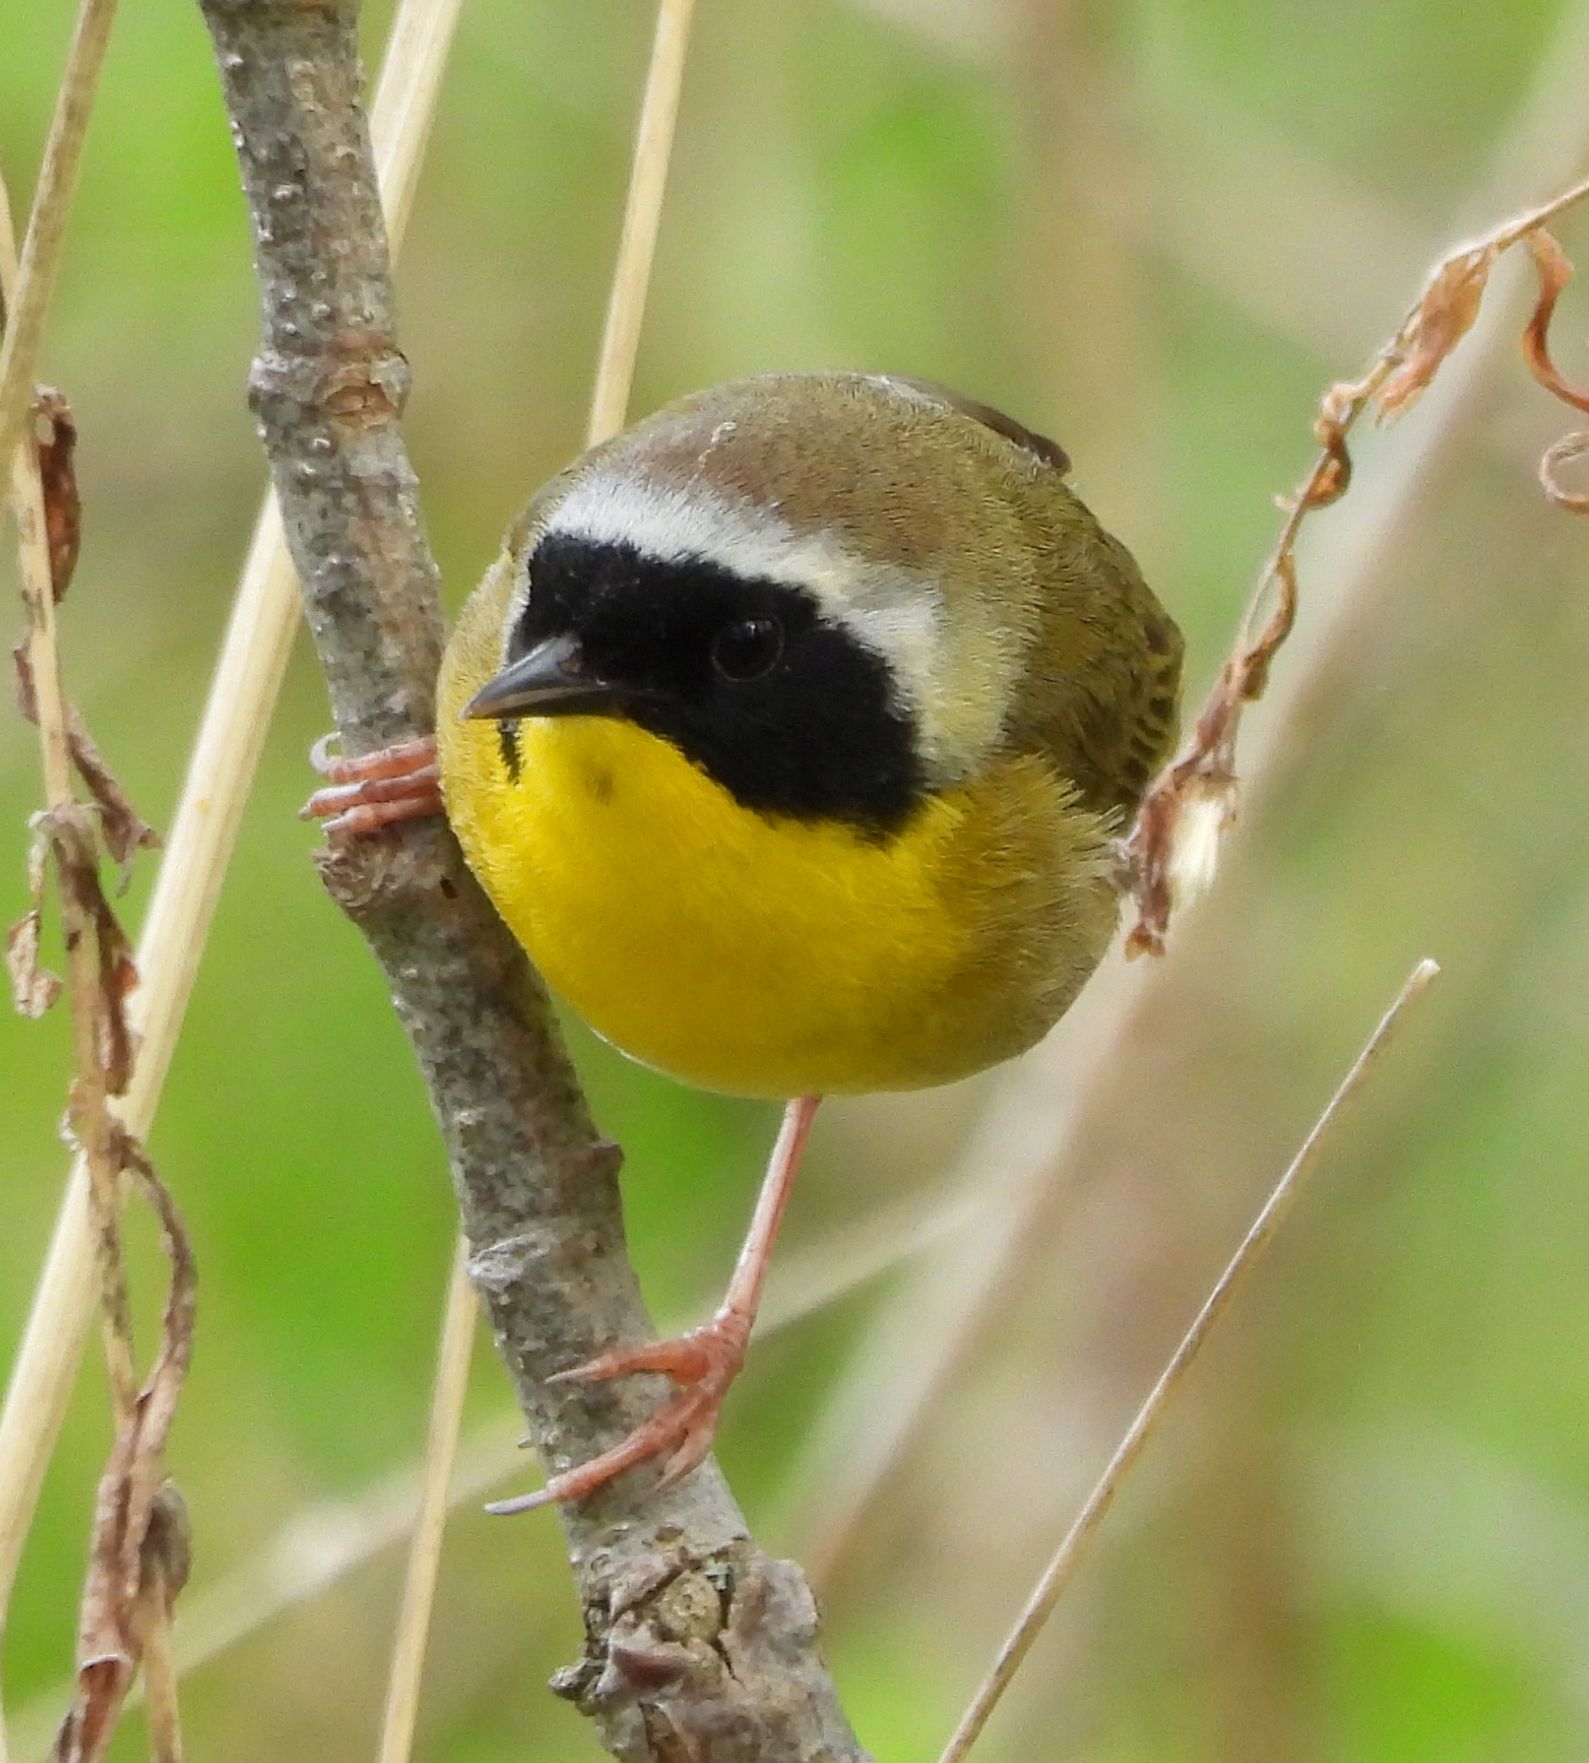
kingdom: Animalia
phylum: Chordata
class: Aves
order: Passeriformes
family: Parulidae
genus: Geothlypis
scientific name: Geothlypis trichas
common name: Common yellowthroat
